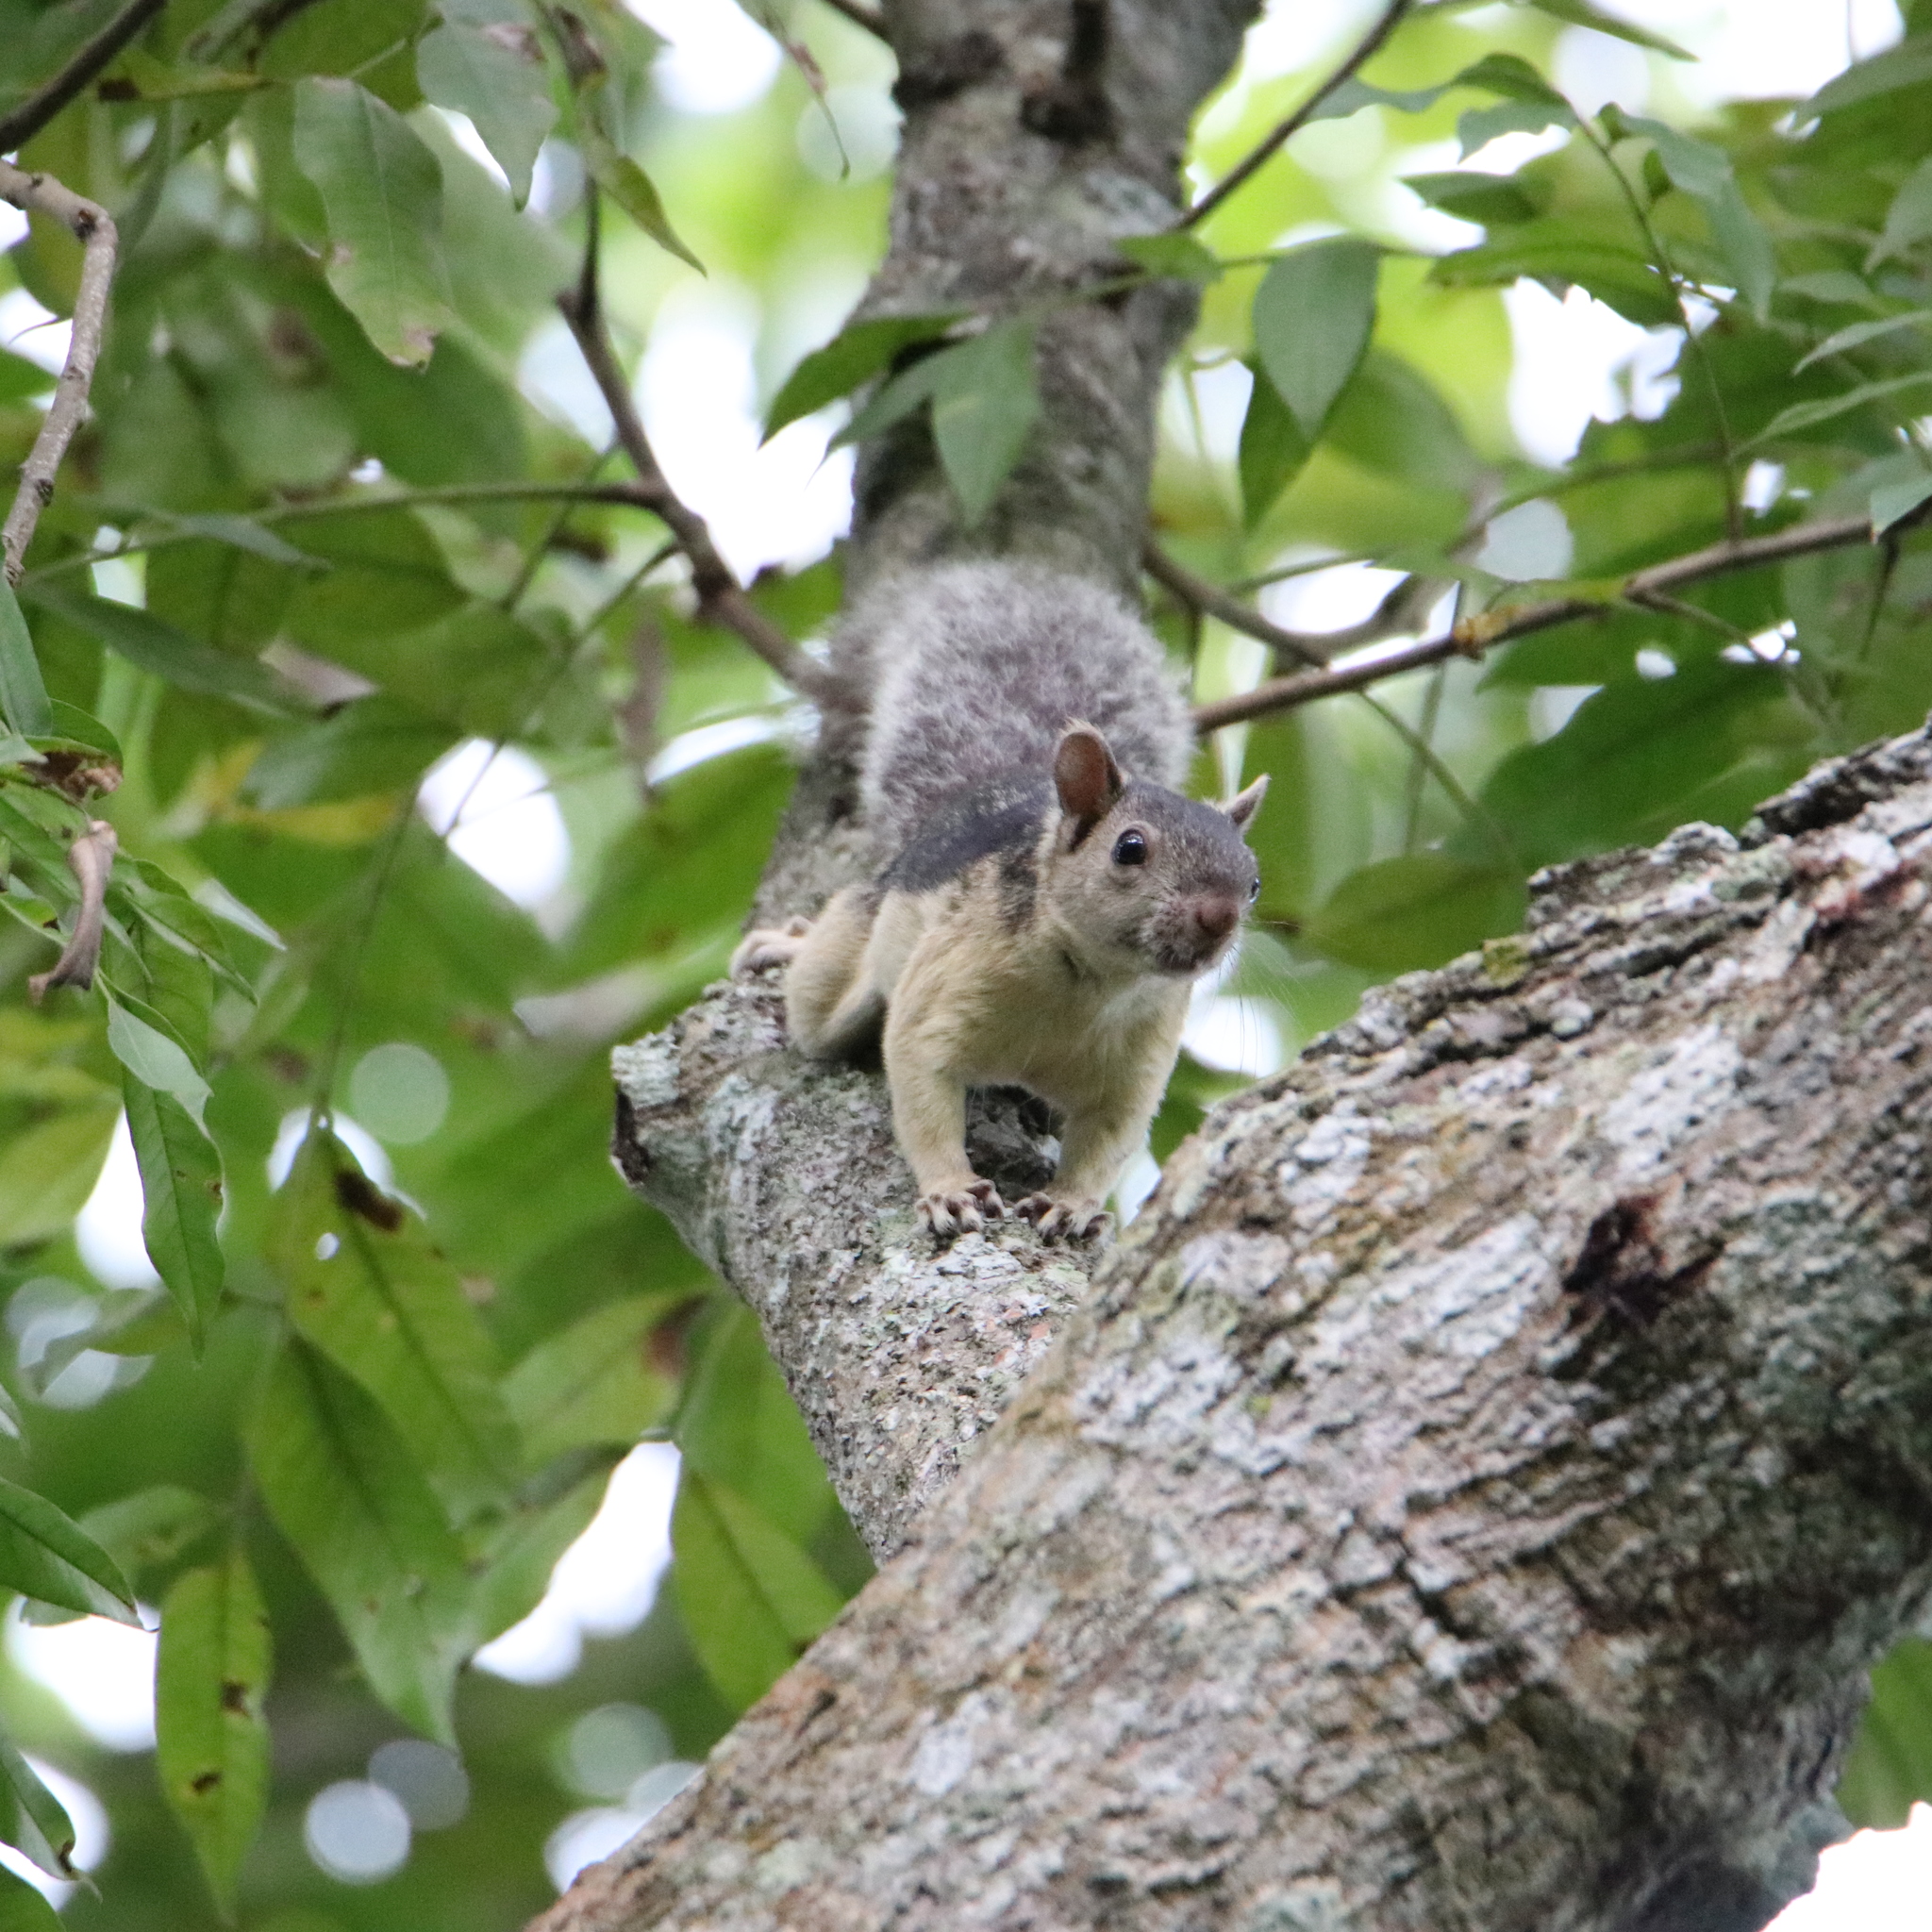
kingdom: Animalia
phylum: Chordata
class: Mammalia
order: Rodentia
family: Sciuridae
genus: Sciurus
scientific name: Sciurus variegatoides
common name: Variegated squirrel
